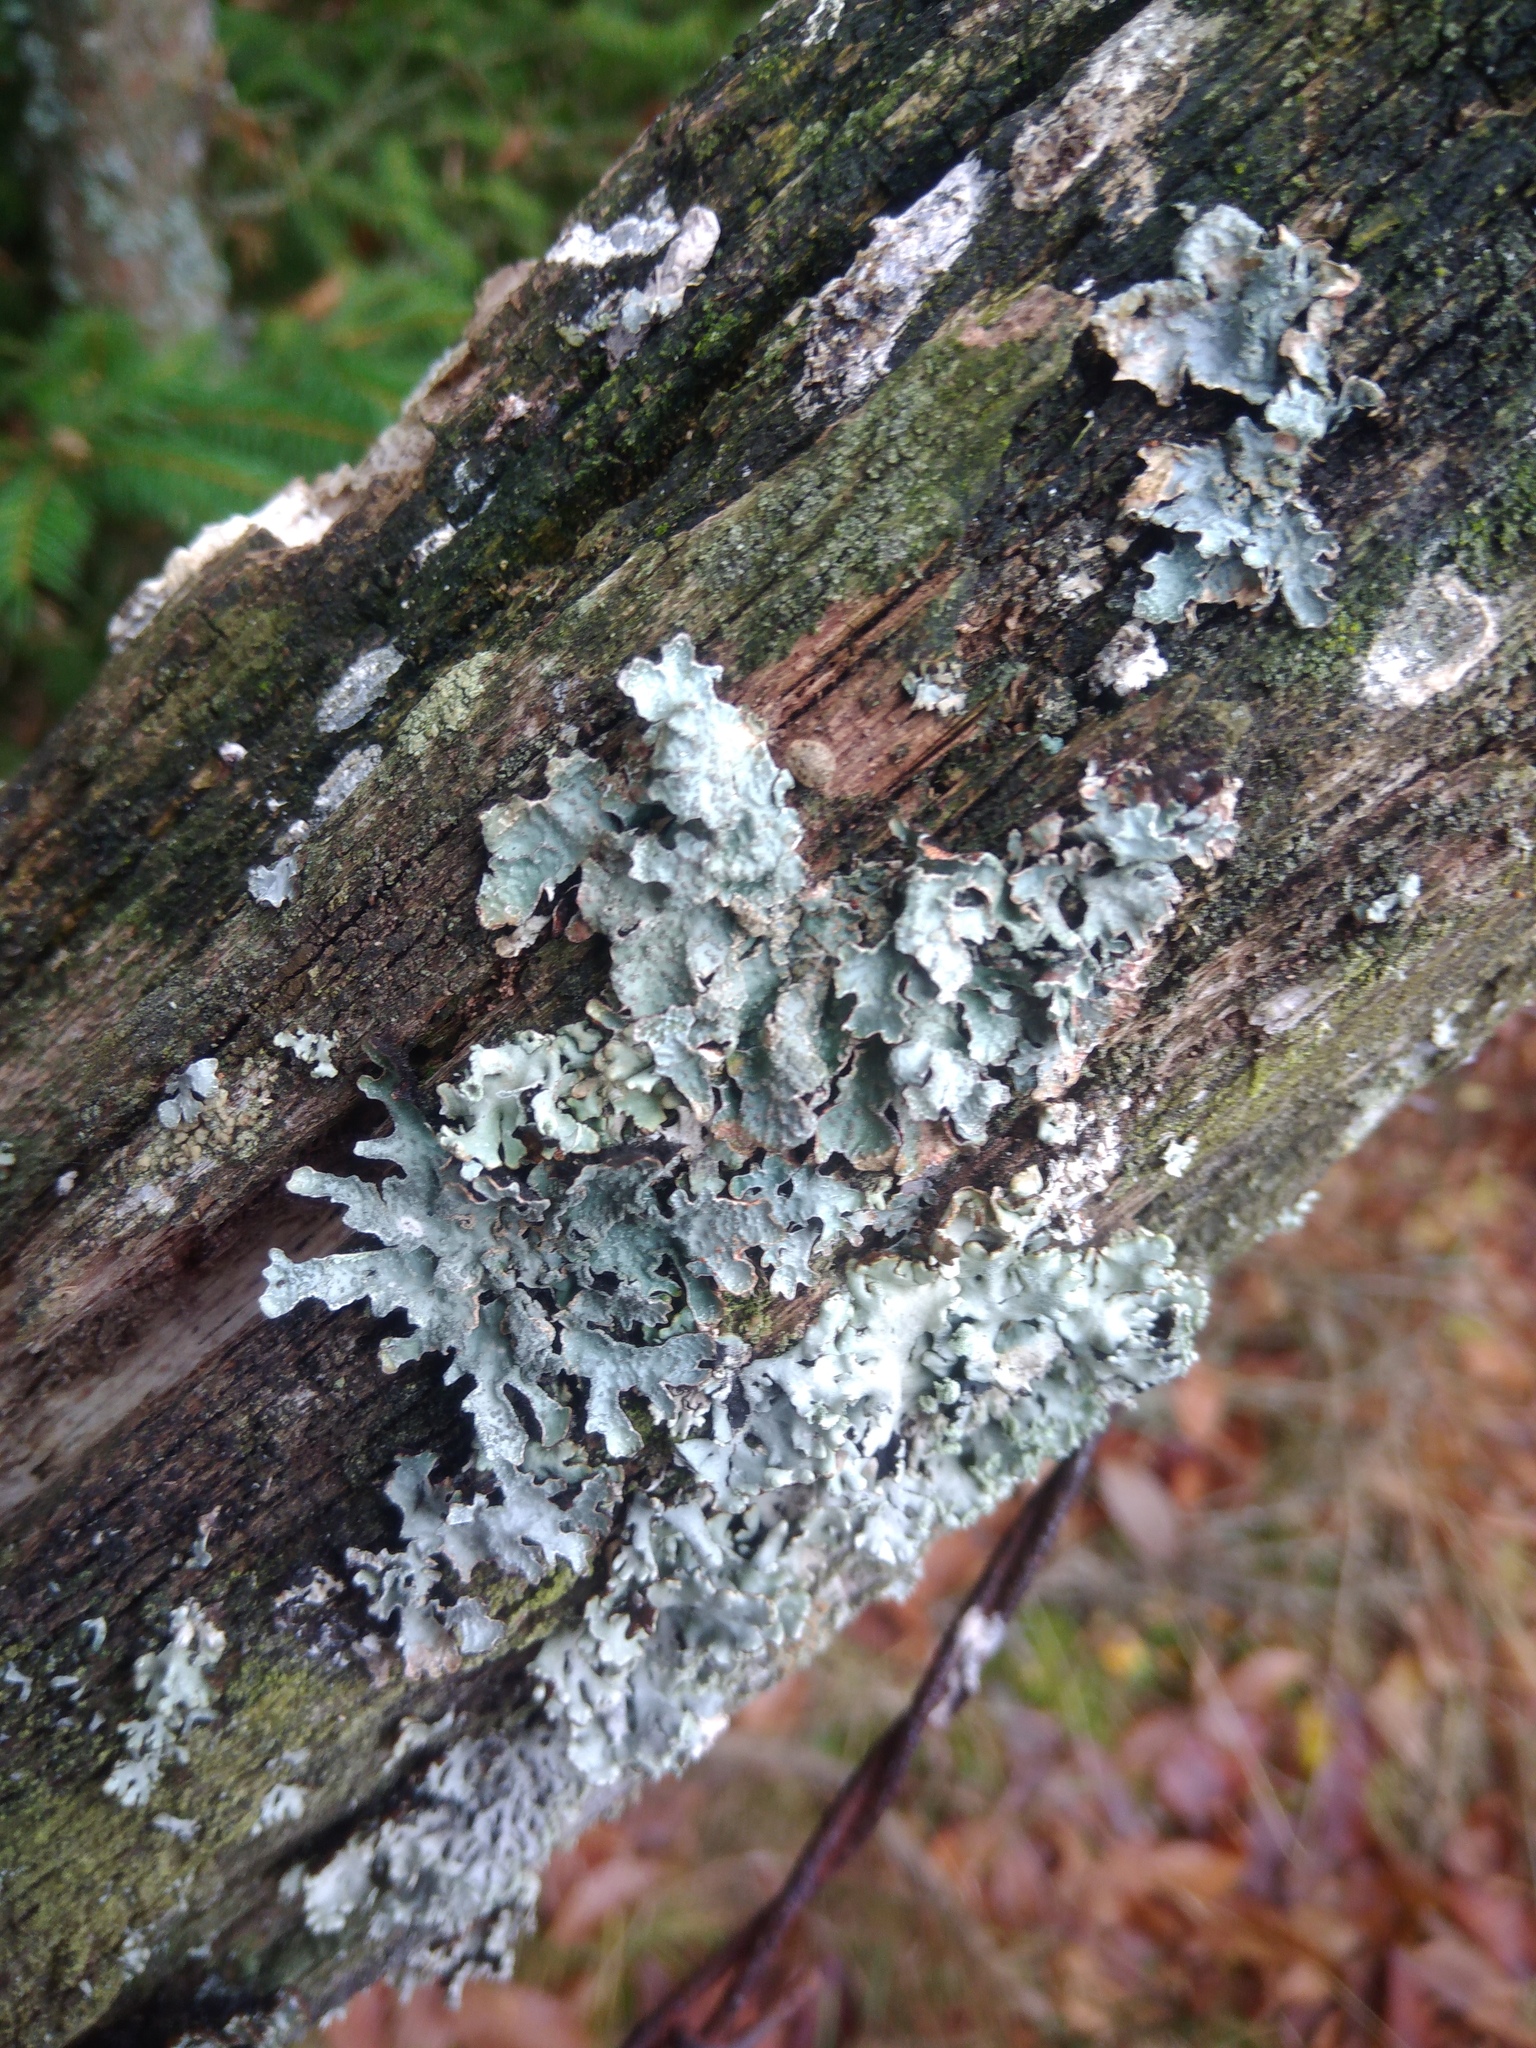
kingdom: Fungi
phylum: Ascomycota
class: Lecanoromycetes
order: Lecanorales
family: Parmeliaceae
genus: Parmelia
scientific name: Parmelia sulcata
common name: Netted shield lichen
